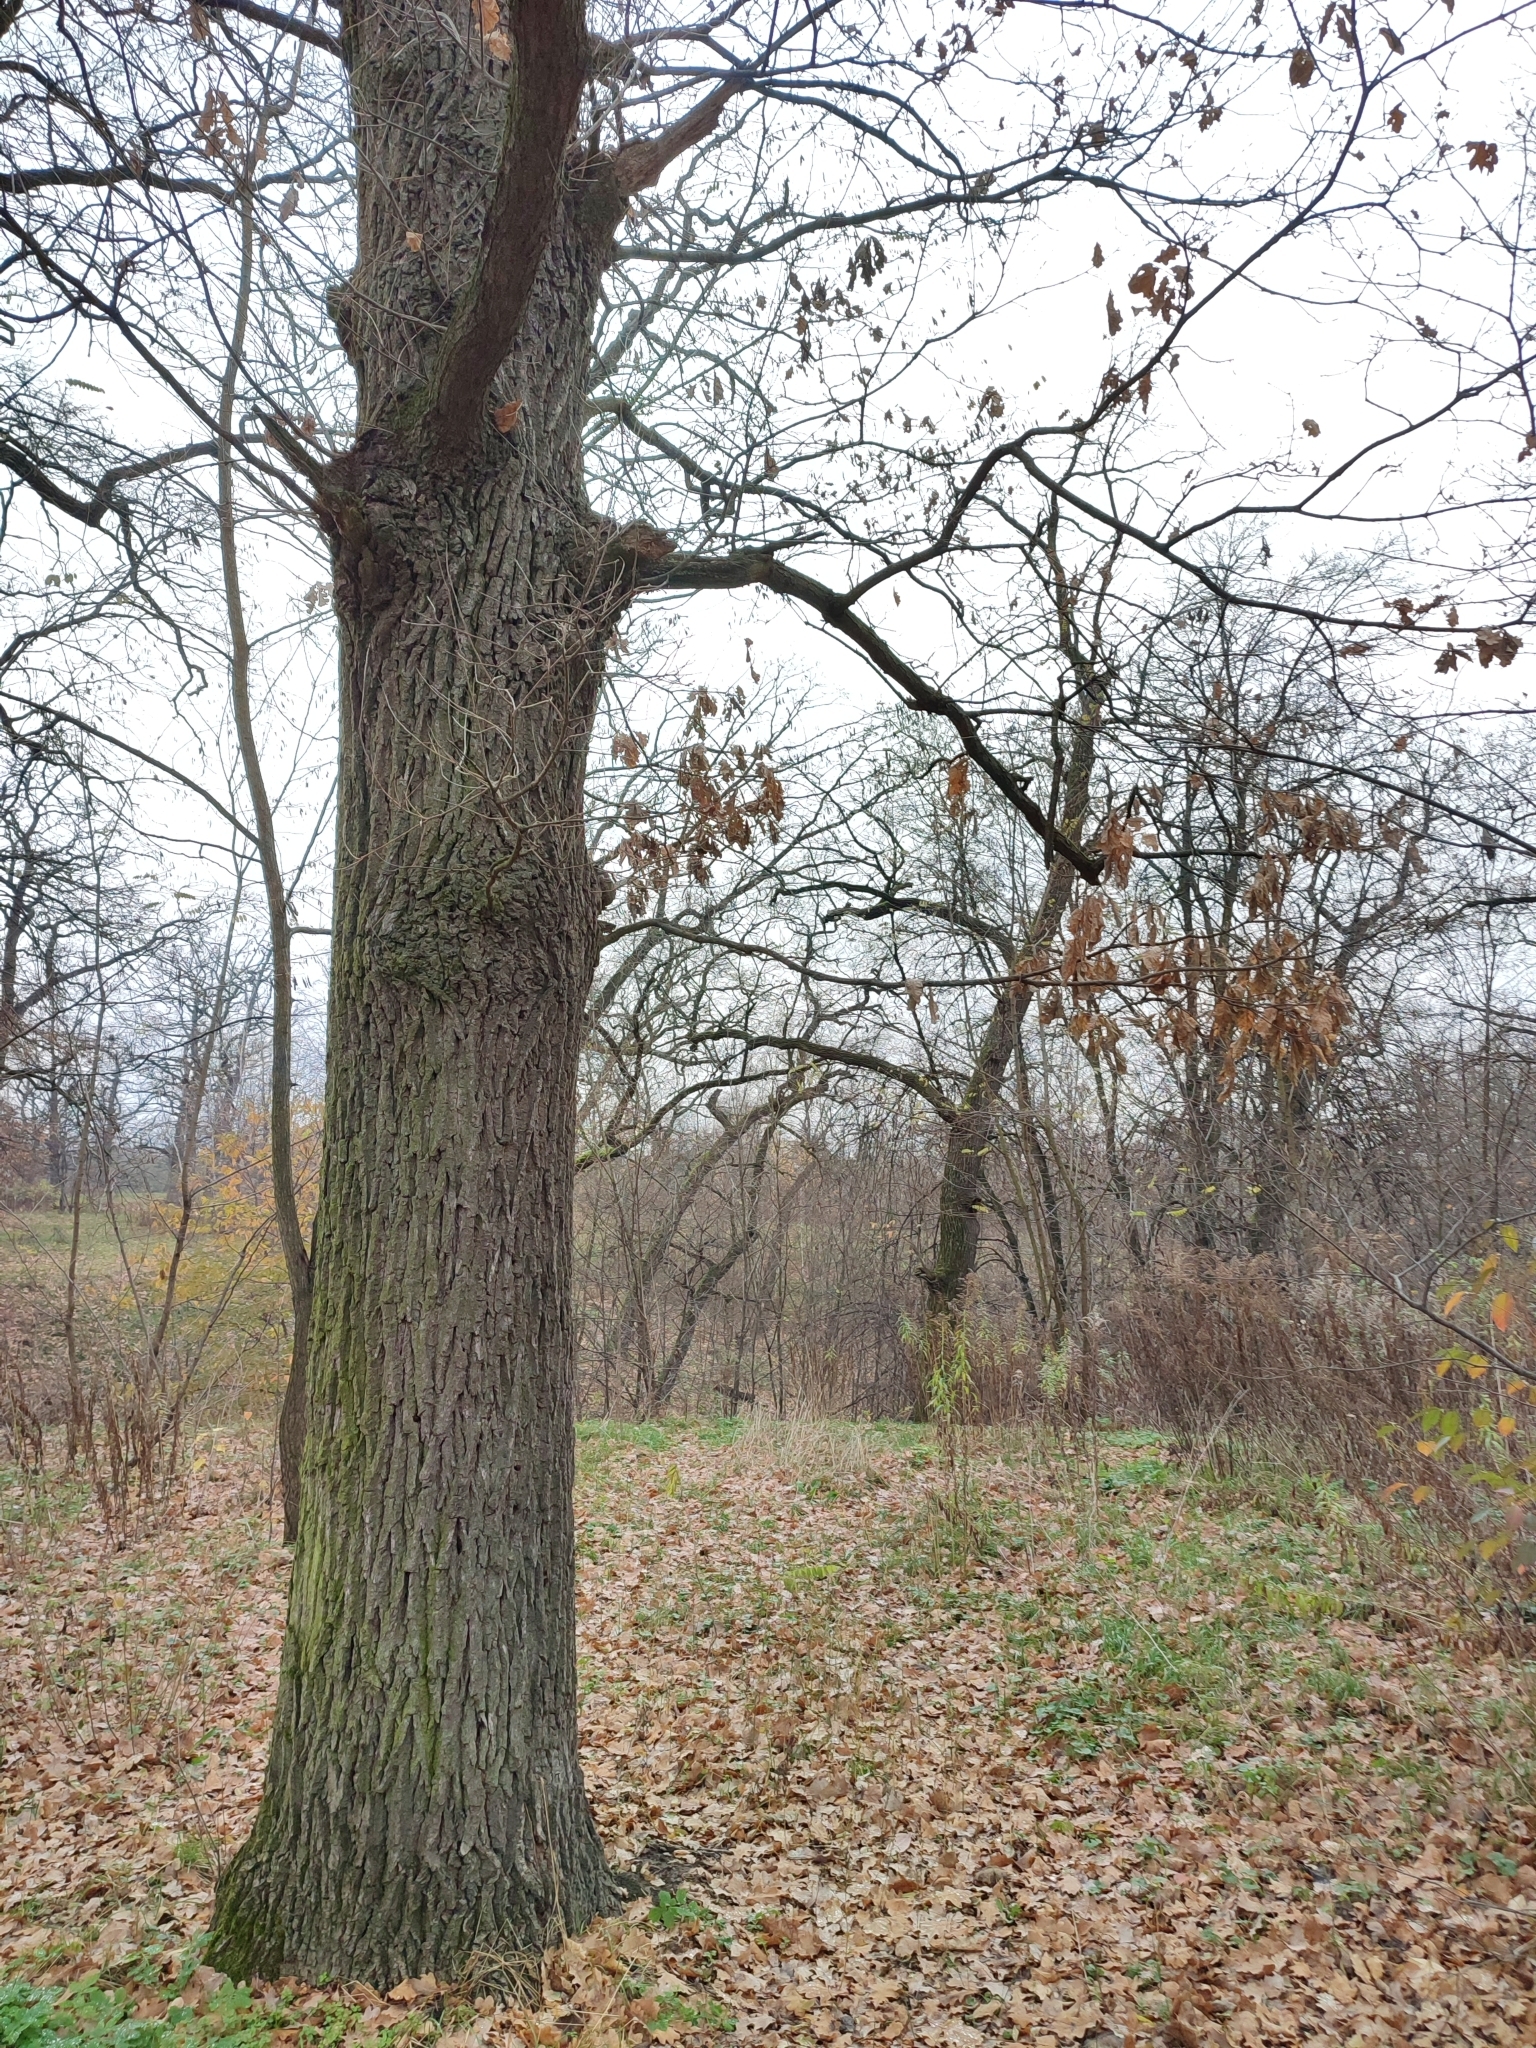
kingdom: Plantae
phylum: Tracheophyta
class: Magnoliopsida
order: Fagales
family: Fagaceae
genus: Quercus
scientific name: Quercus robur
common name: Pedunculate oak
